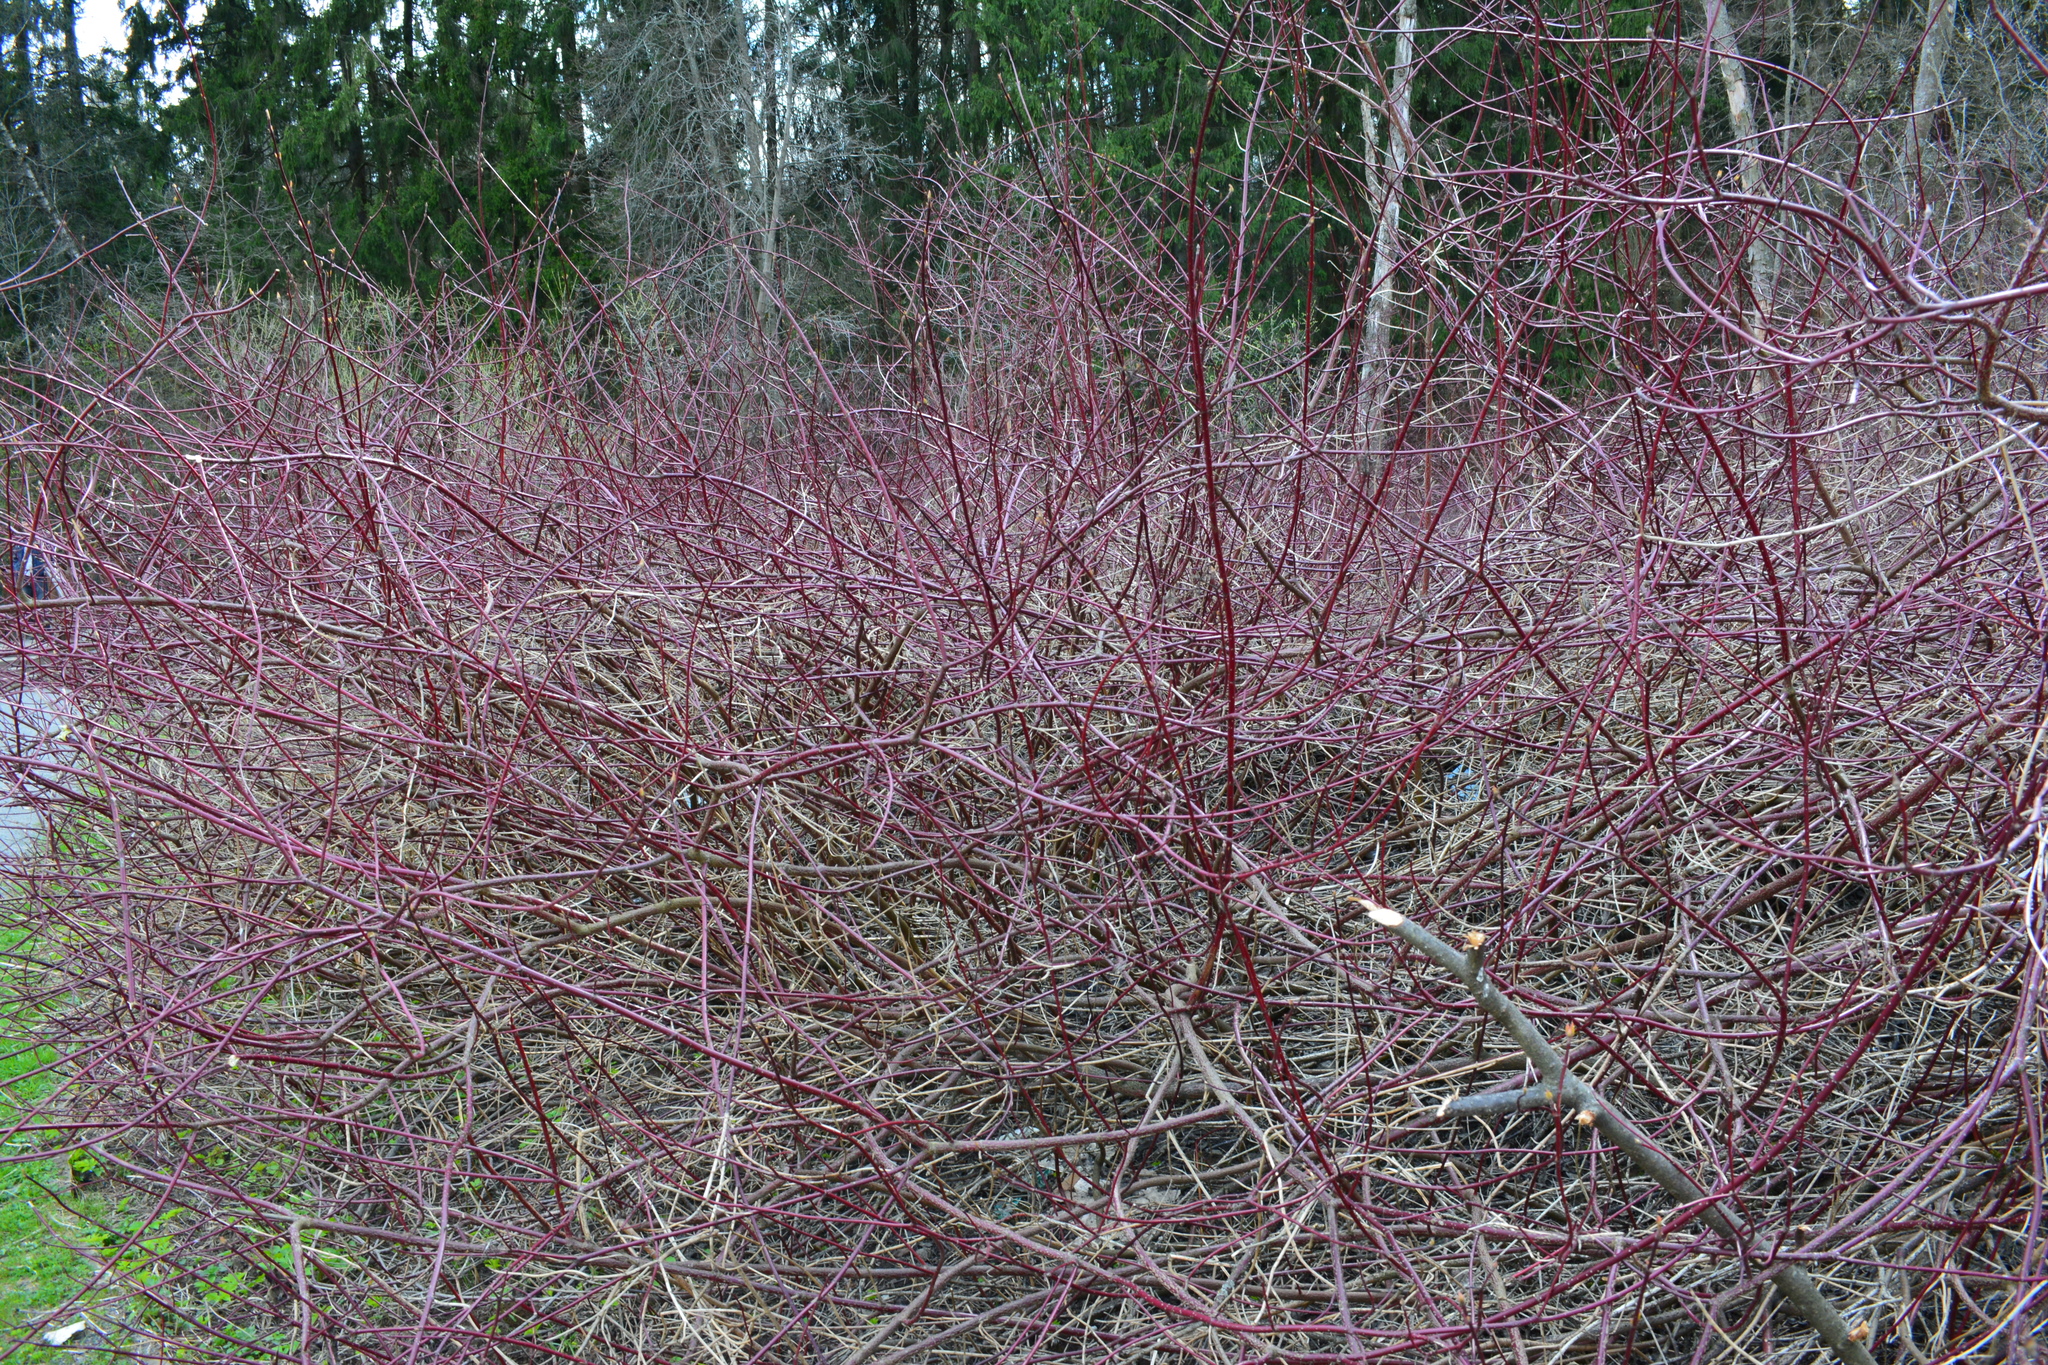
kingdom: Plantae
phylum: Tracheophyta
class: Magnoliopsida
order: Cornales
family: Cornaceae
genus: Cornus
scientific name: Cornus sericea
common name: Red-osier dogwood
